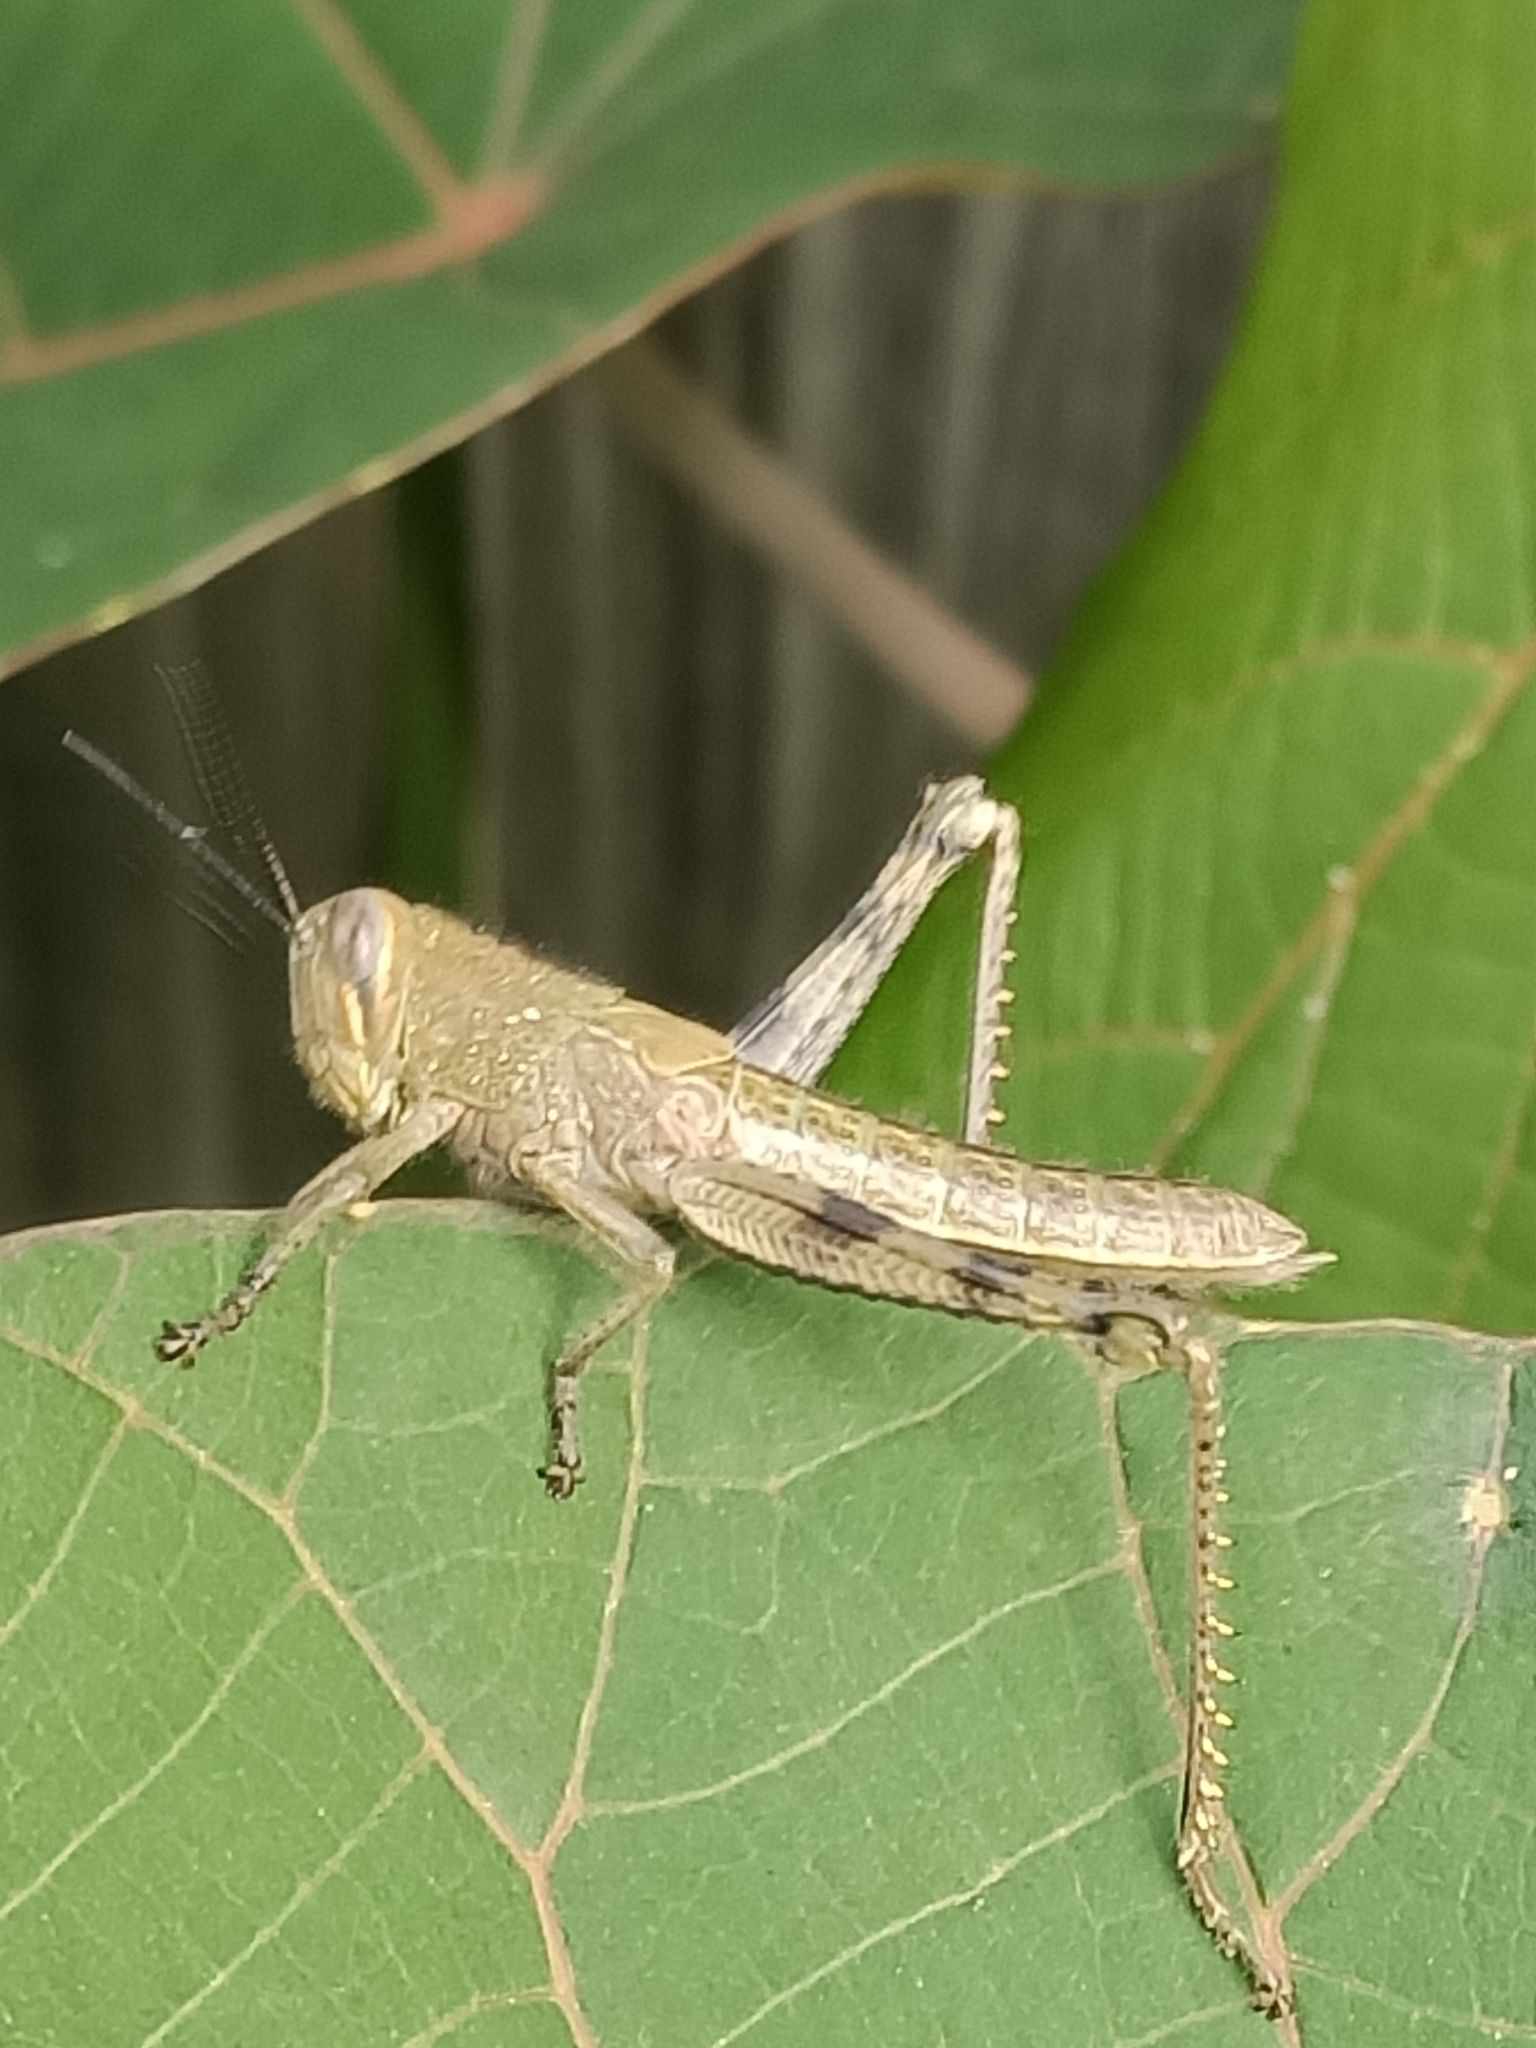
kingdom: Animalia
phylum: Arthropoda
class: Insecta
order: Orthoptera
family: Acrididae
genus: Valanga
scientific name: Valanga irregularis
